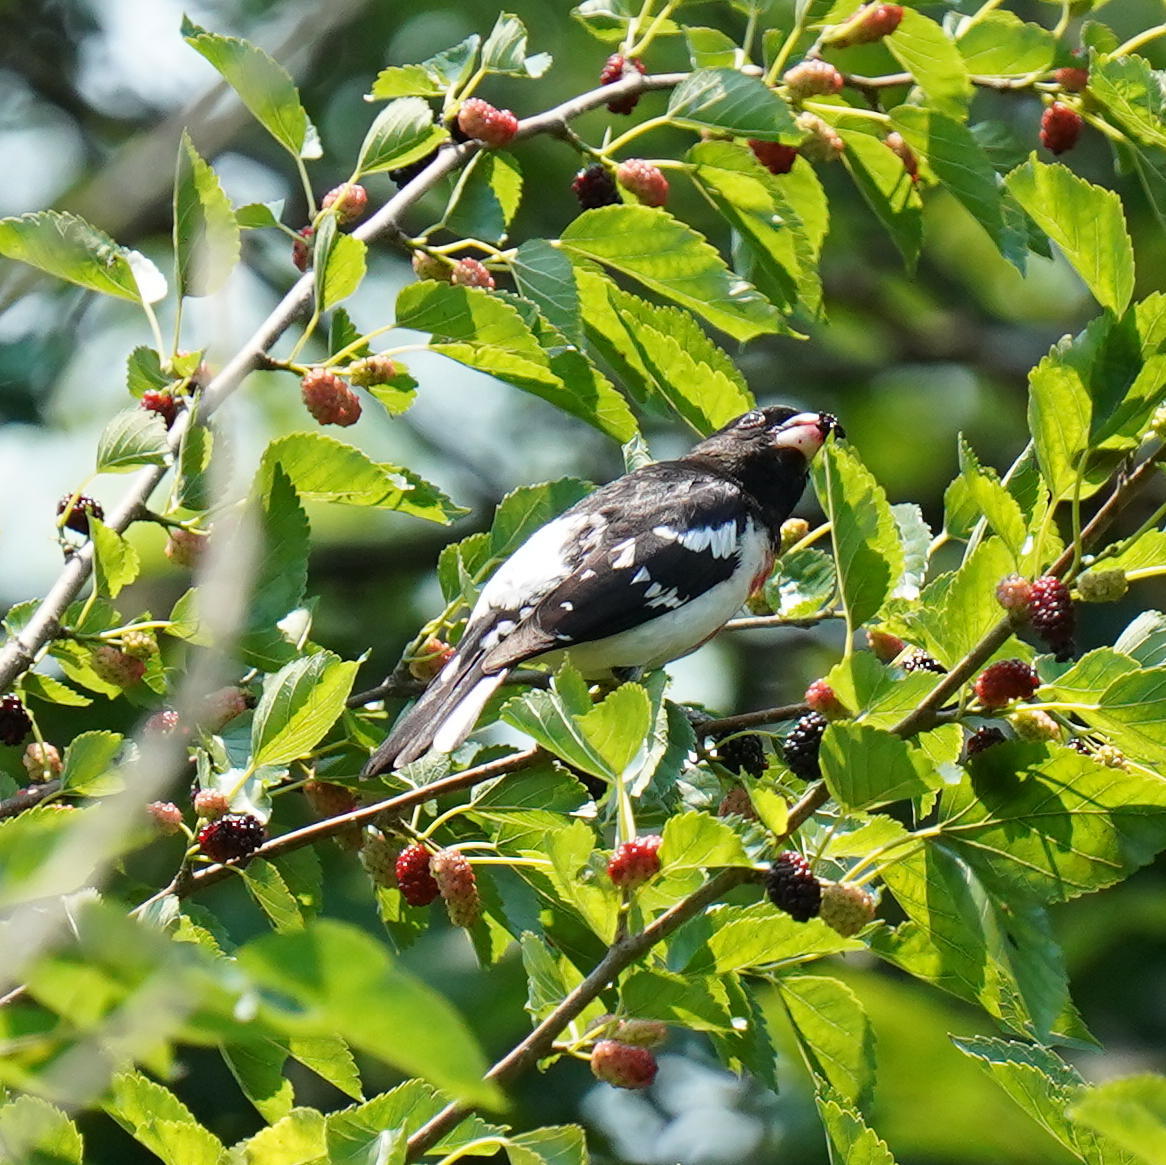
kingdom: Animalia
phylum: Chordata
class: Aves
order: Passeriformes
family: Cardinalidae
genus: Pheucticus
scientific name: Pheucticus ludovicianus
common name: Rose-breasted grosbeak
